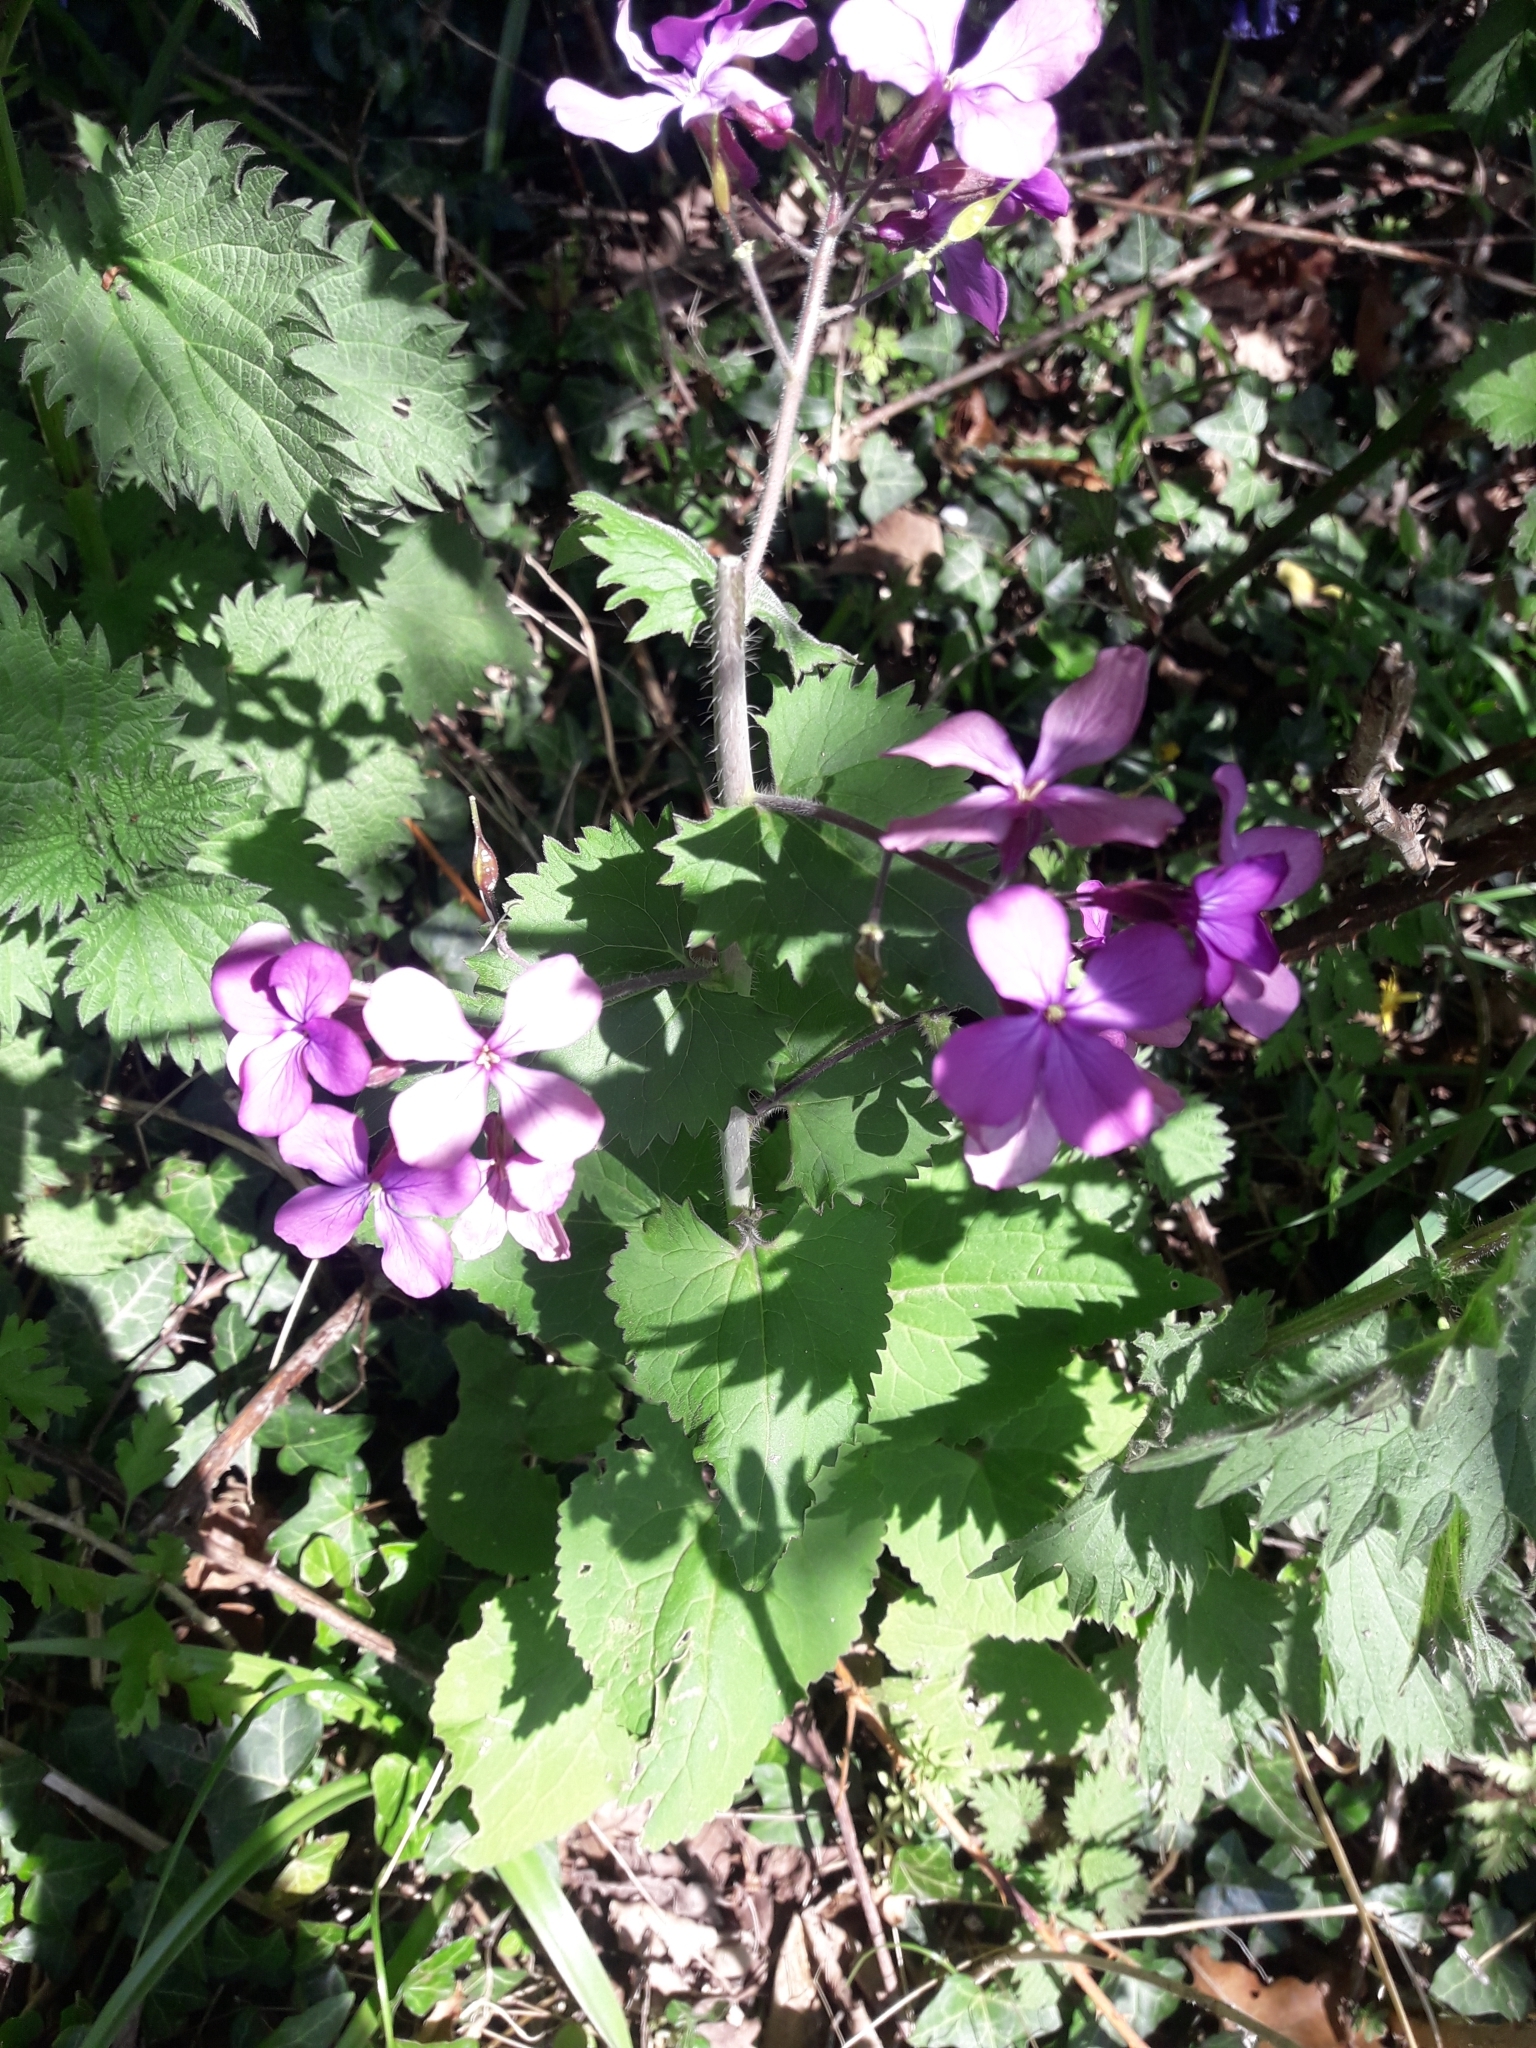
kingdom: Plantae
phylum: Tracheophyta
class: Magnoliopsida
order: Brassicales
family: Brassicaceae
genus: Lunaria
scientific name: Lunaria annua
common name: Honesty
